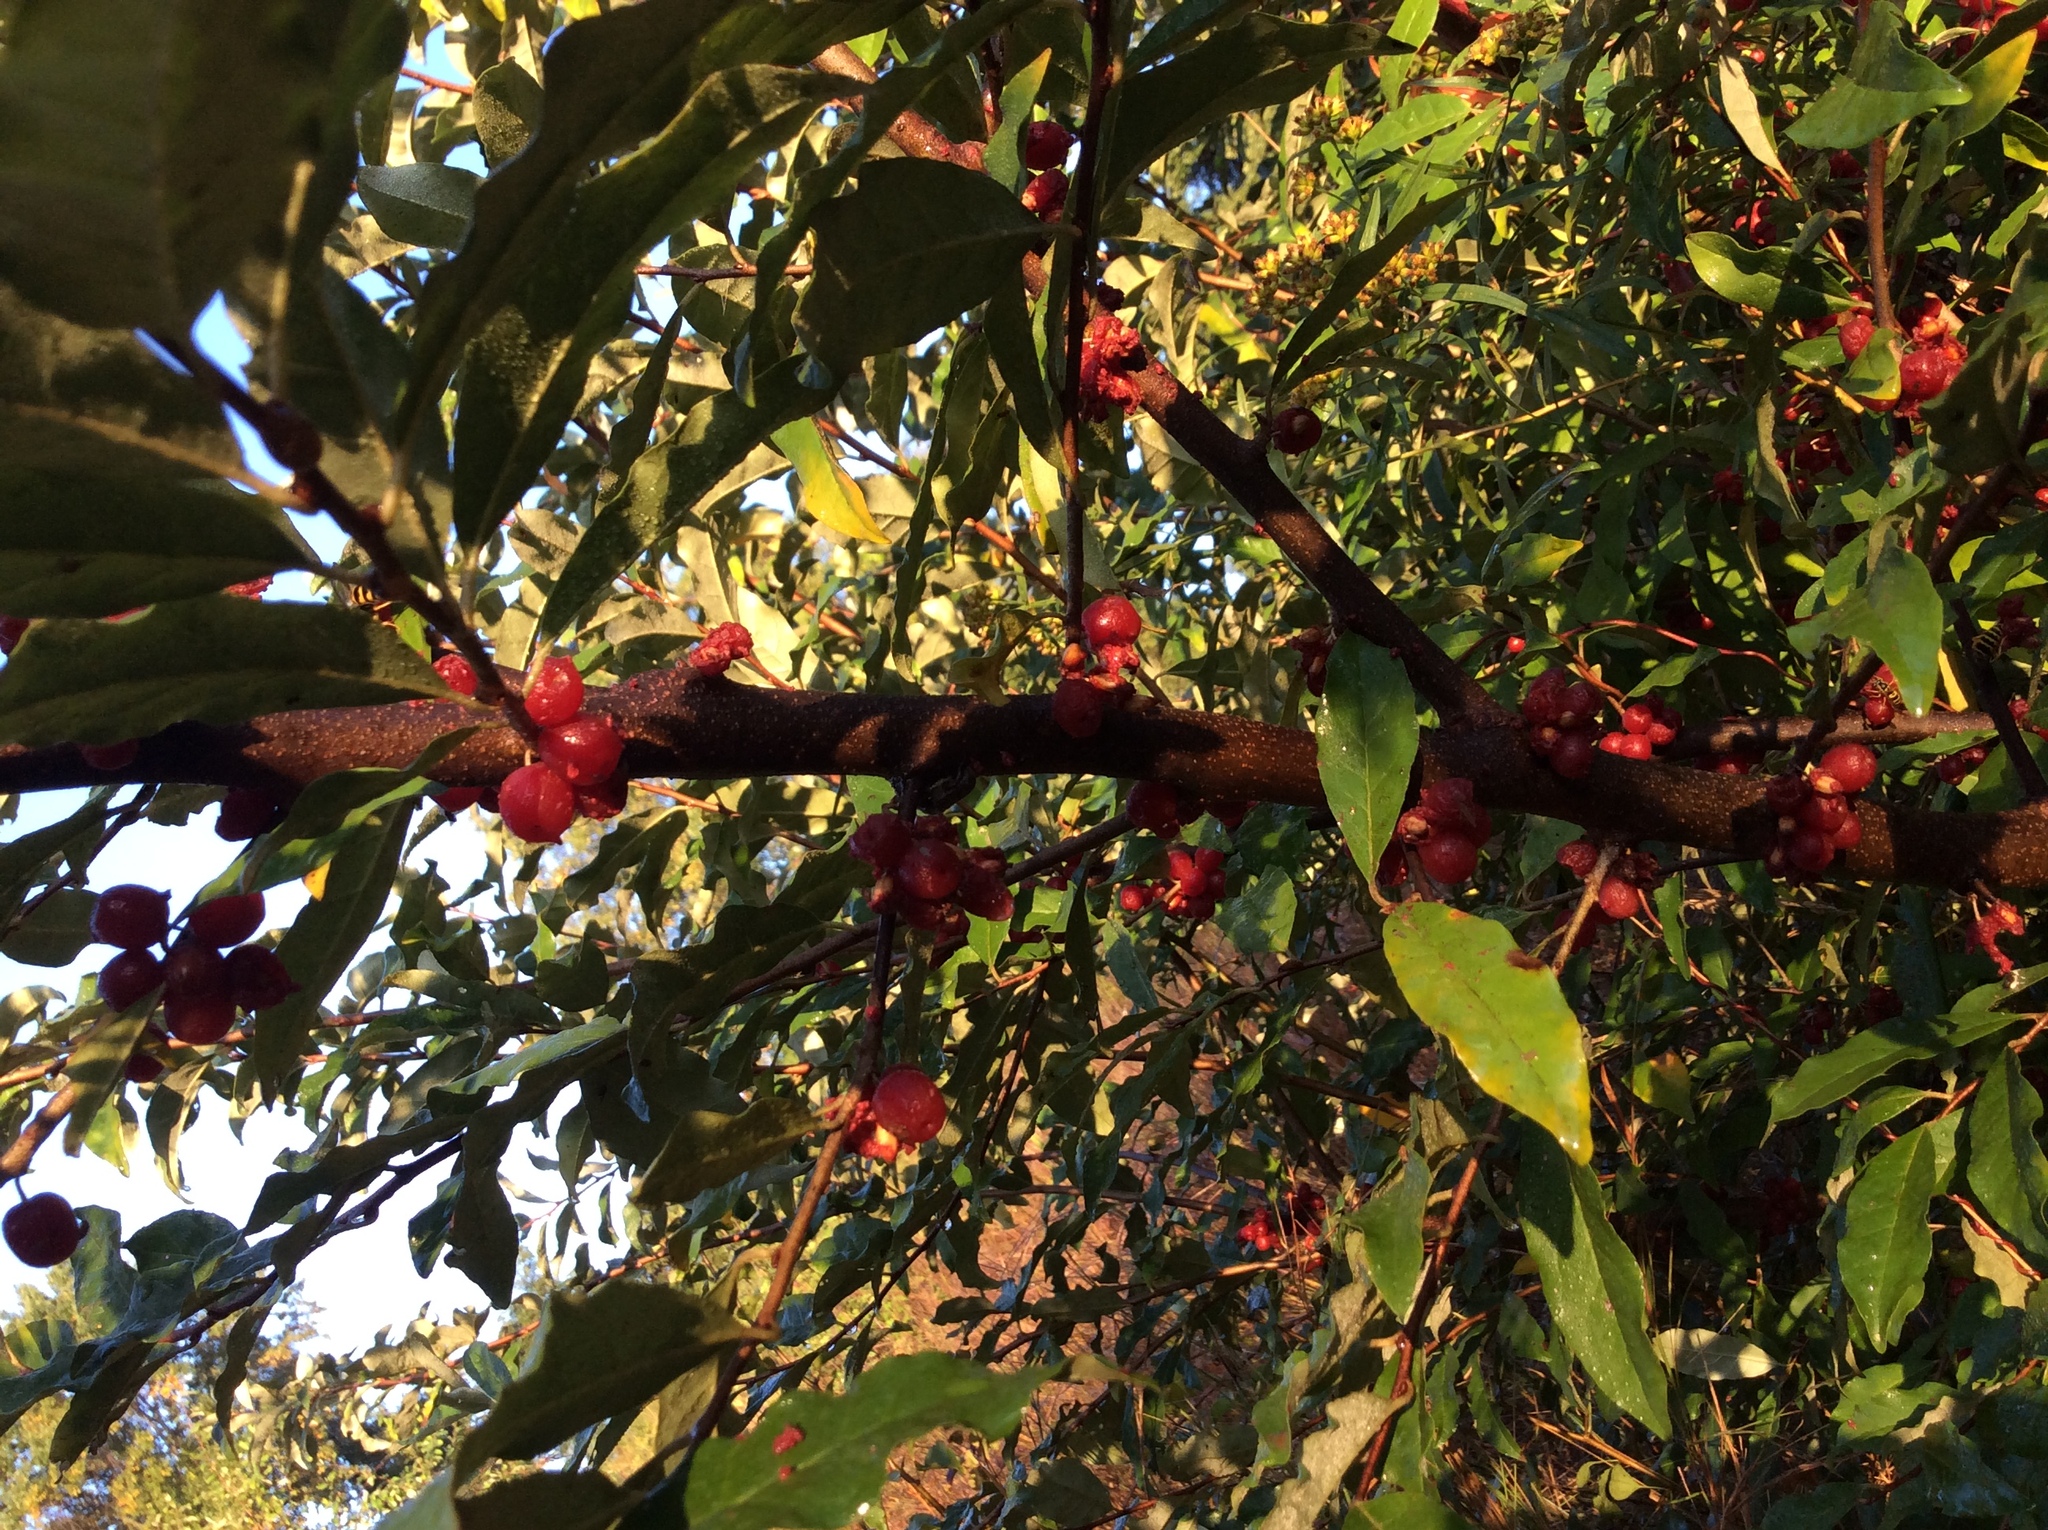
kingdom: Plantae
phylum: Tracheophyta
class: Magnoliopsida
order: Rosales
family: Elaeagnaceae
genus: Elaeagnus
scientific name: Elaeagnus umbellata
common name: Autumn olive
